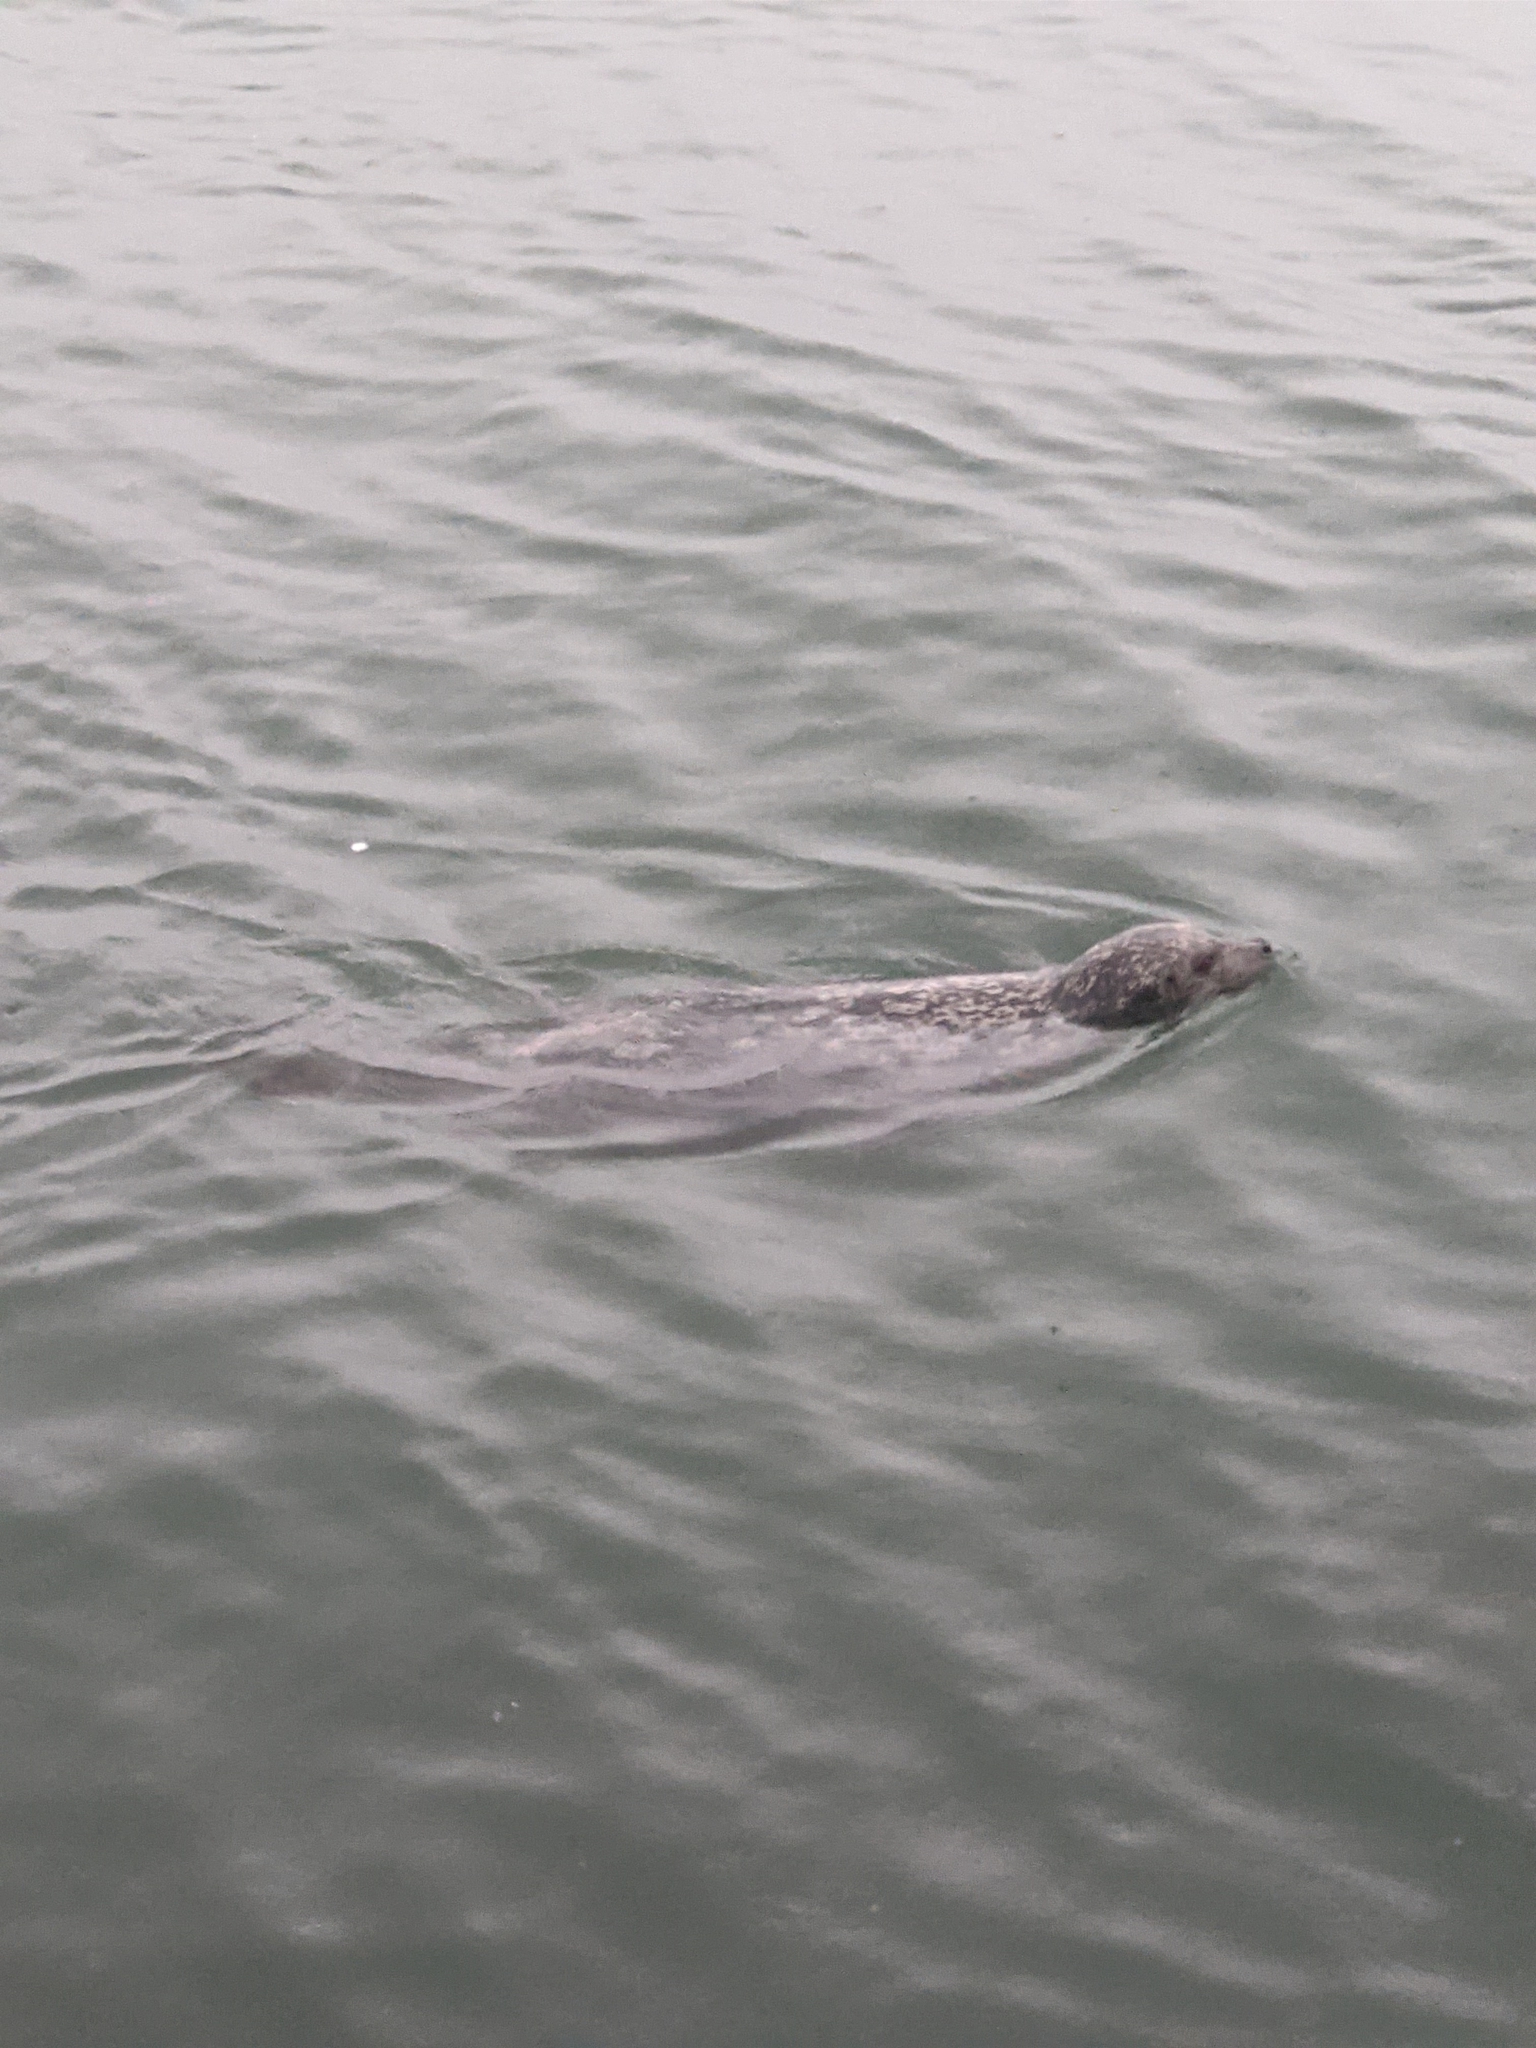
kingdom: Animalia
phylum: Chordata
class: Mammalia
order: Carnivora
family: Phocidae
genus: Phoca
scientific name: Phoca vitulina
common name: Harbor seal
